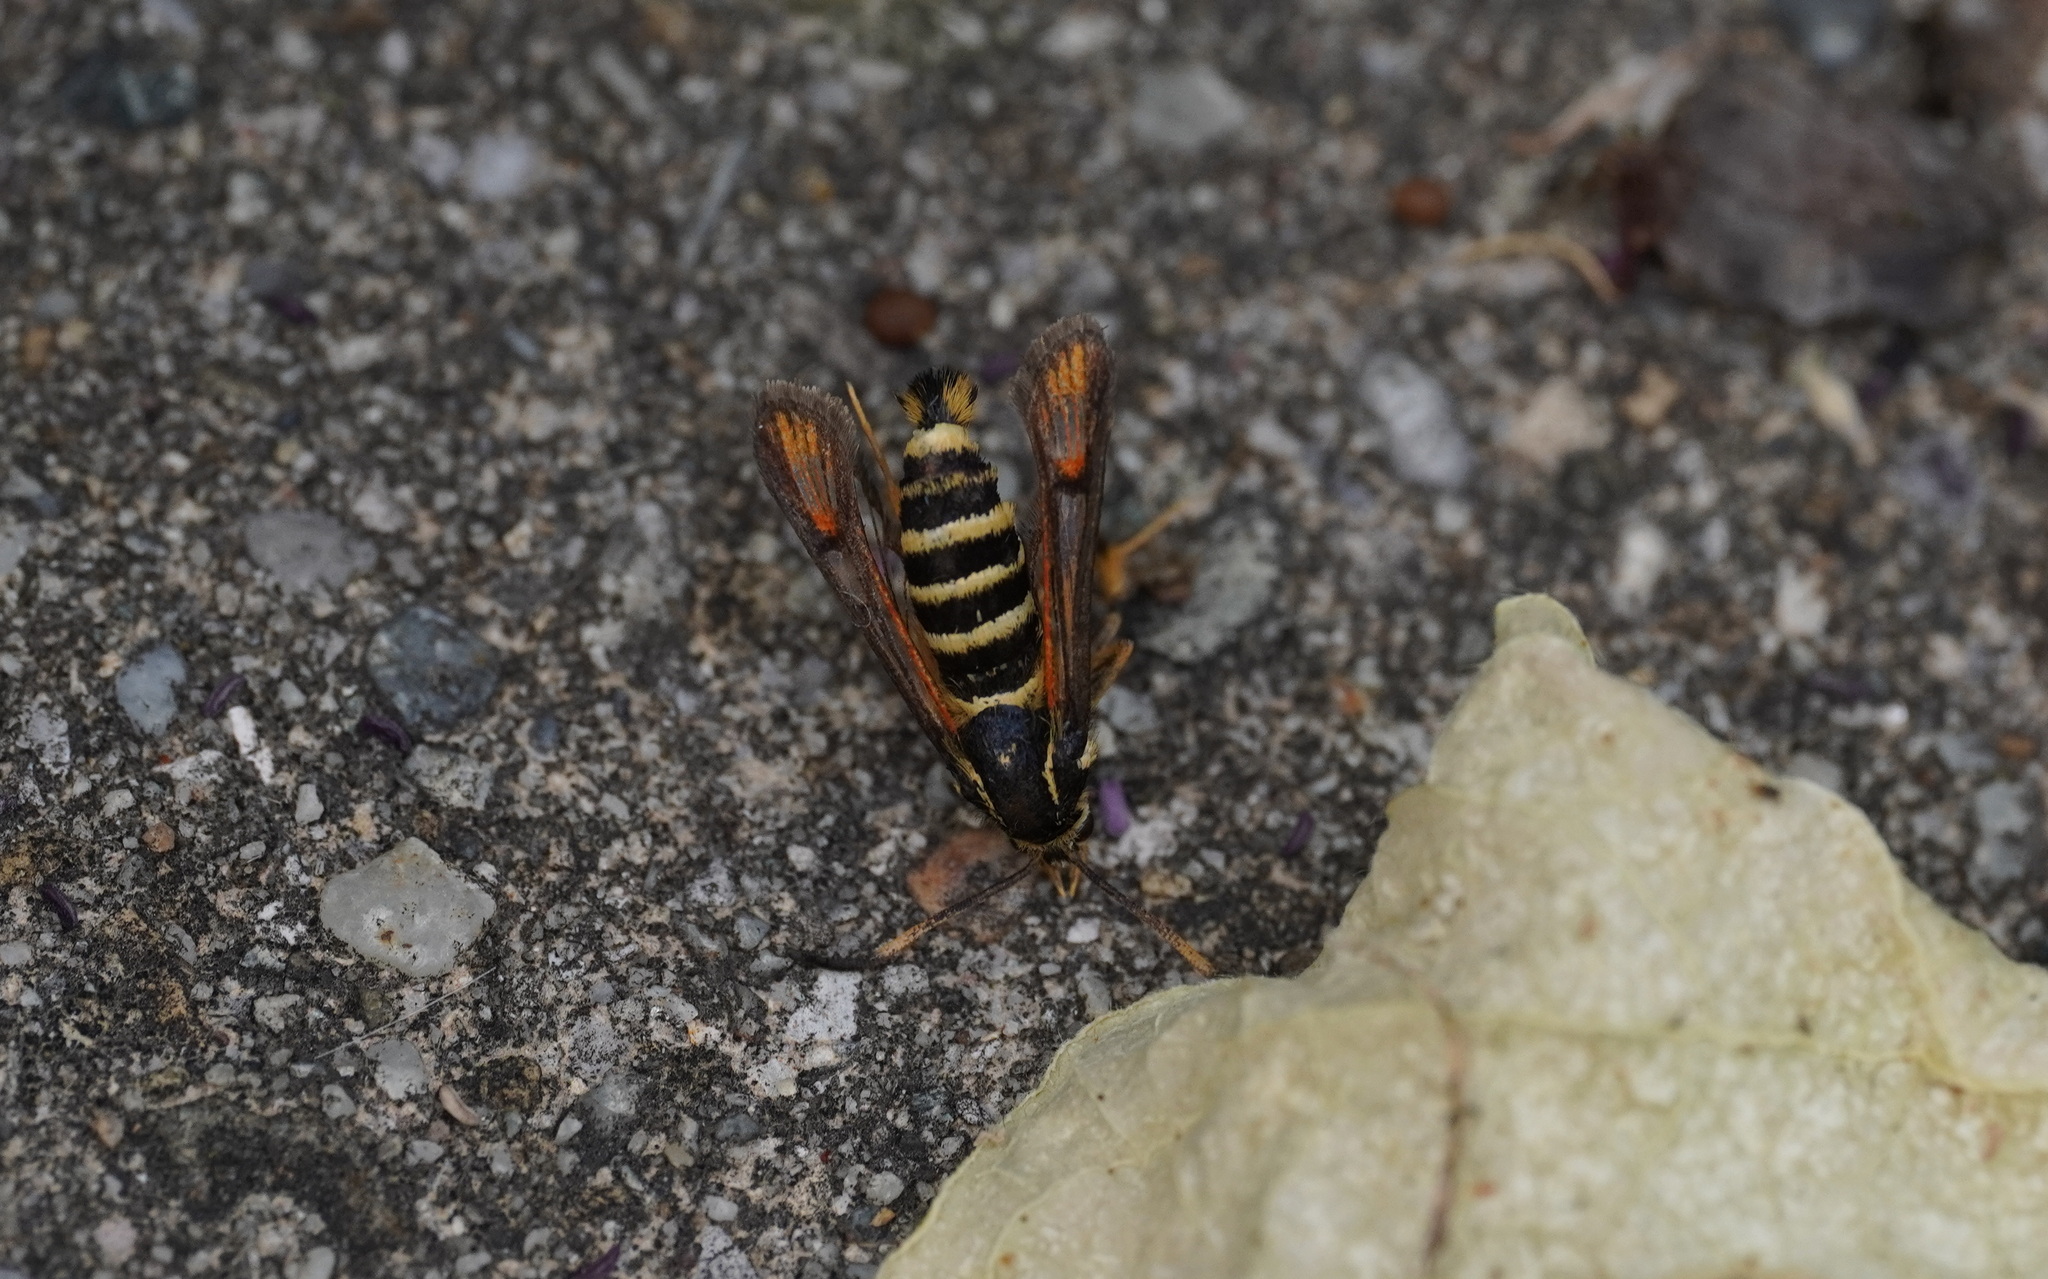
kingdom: Animalia
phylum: Arthropoda
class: Insecta
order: Lepidoptera
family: Sesiidae
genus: Bembecia
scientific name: Bembecia ichneumoniformis
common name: Six-belted clearwing
